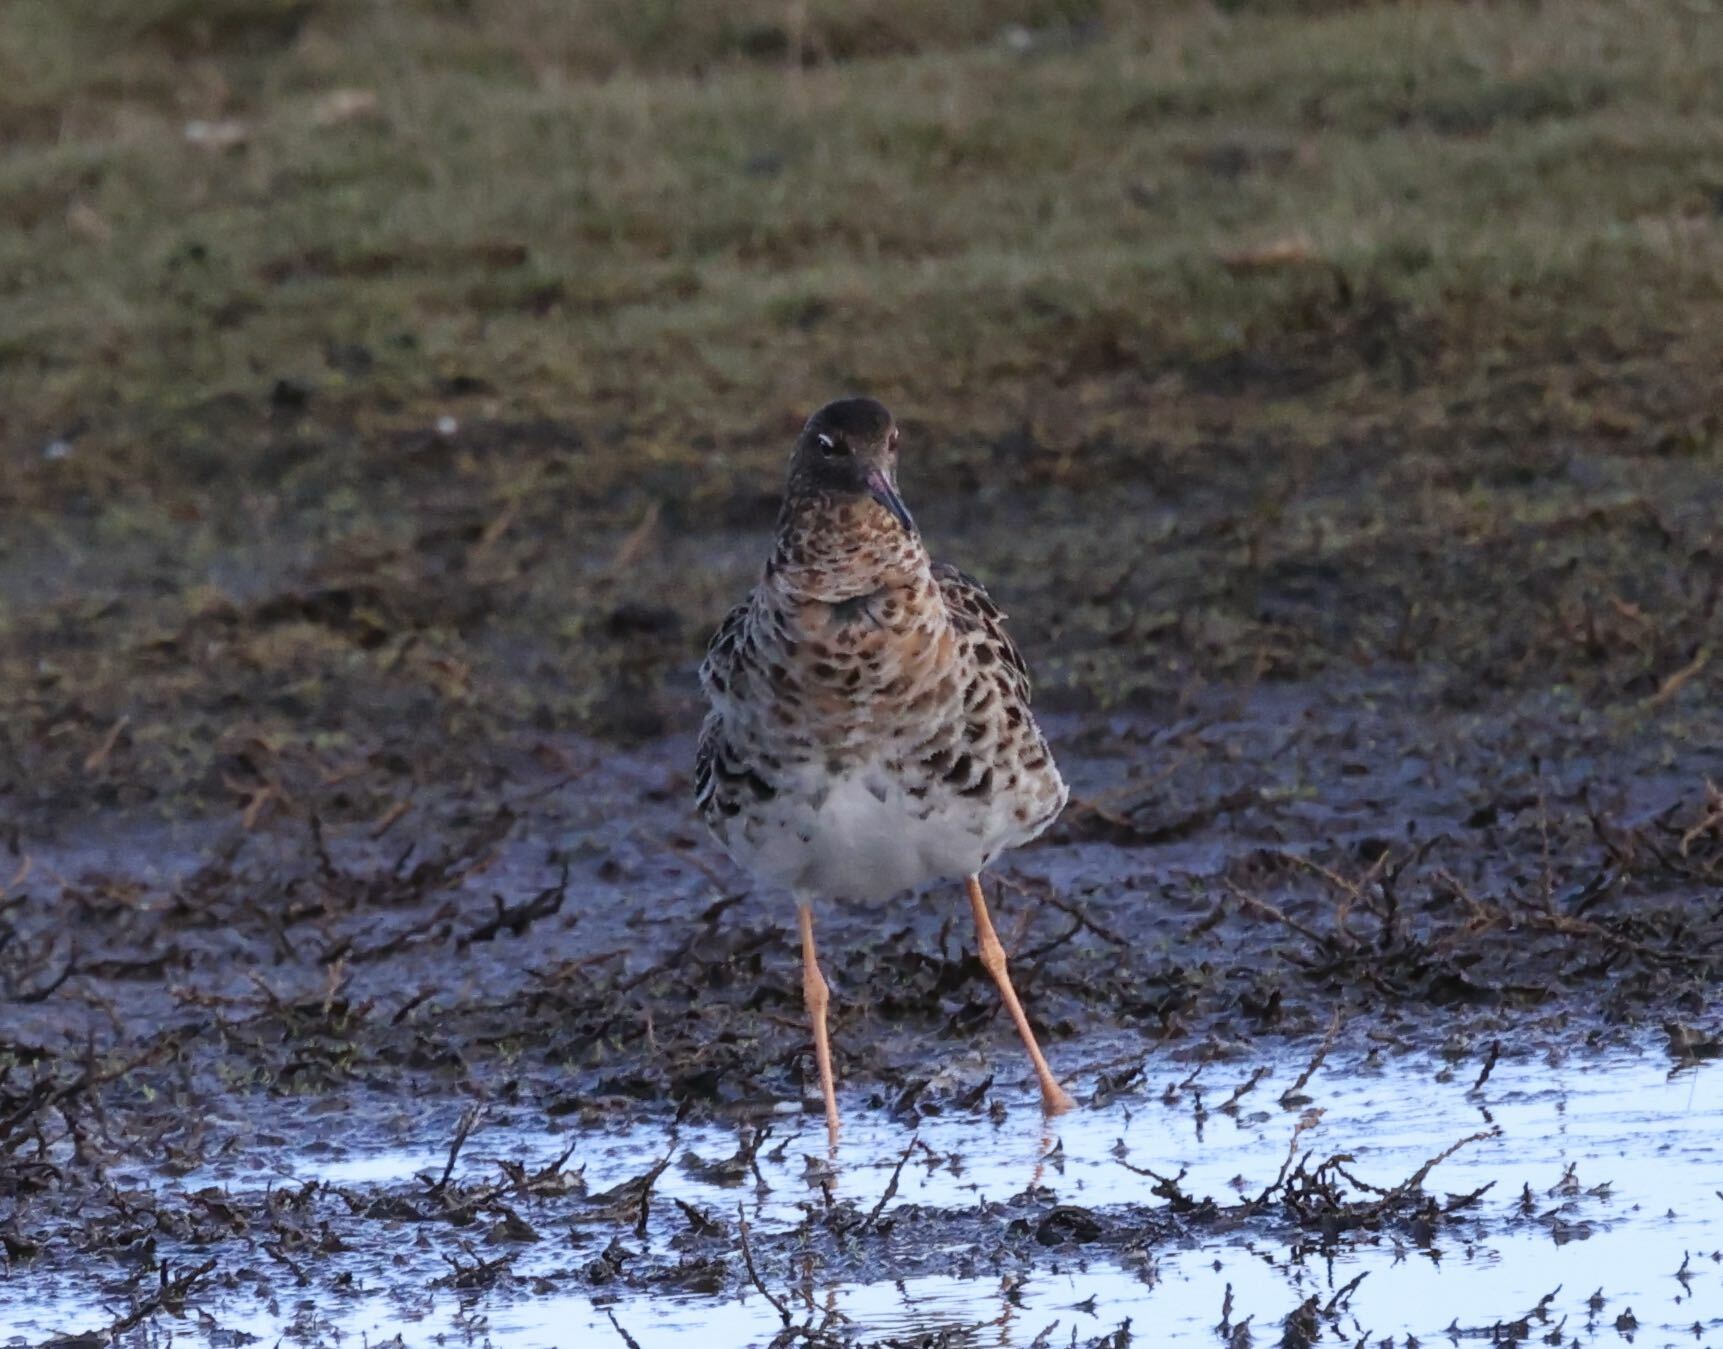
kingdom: Animalia
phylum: Chordata
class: Aves
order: Charadriiformes
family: Scolopacidae
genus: Calidris
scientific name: Calidris pugnax
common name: Ruff
